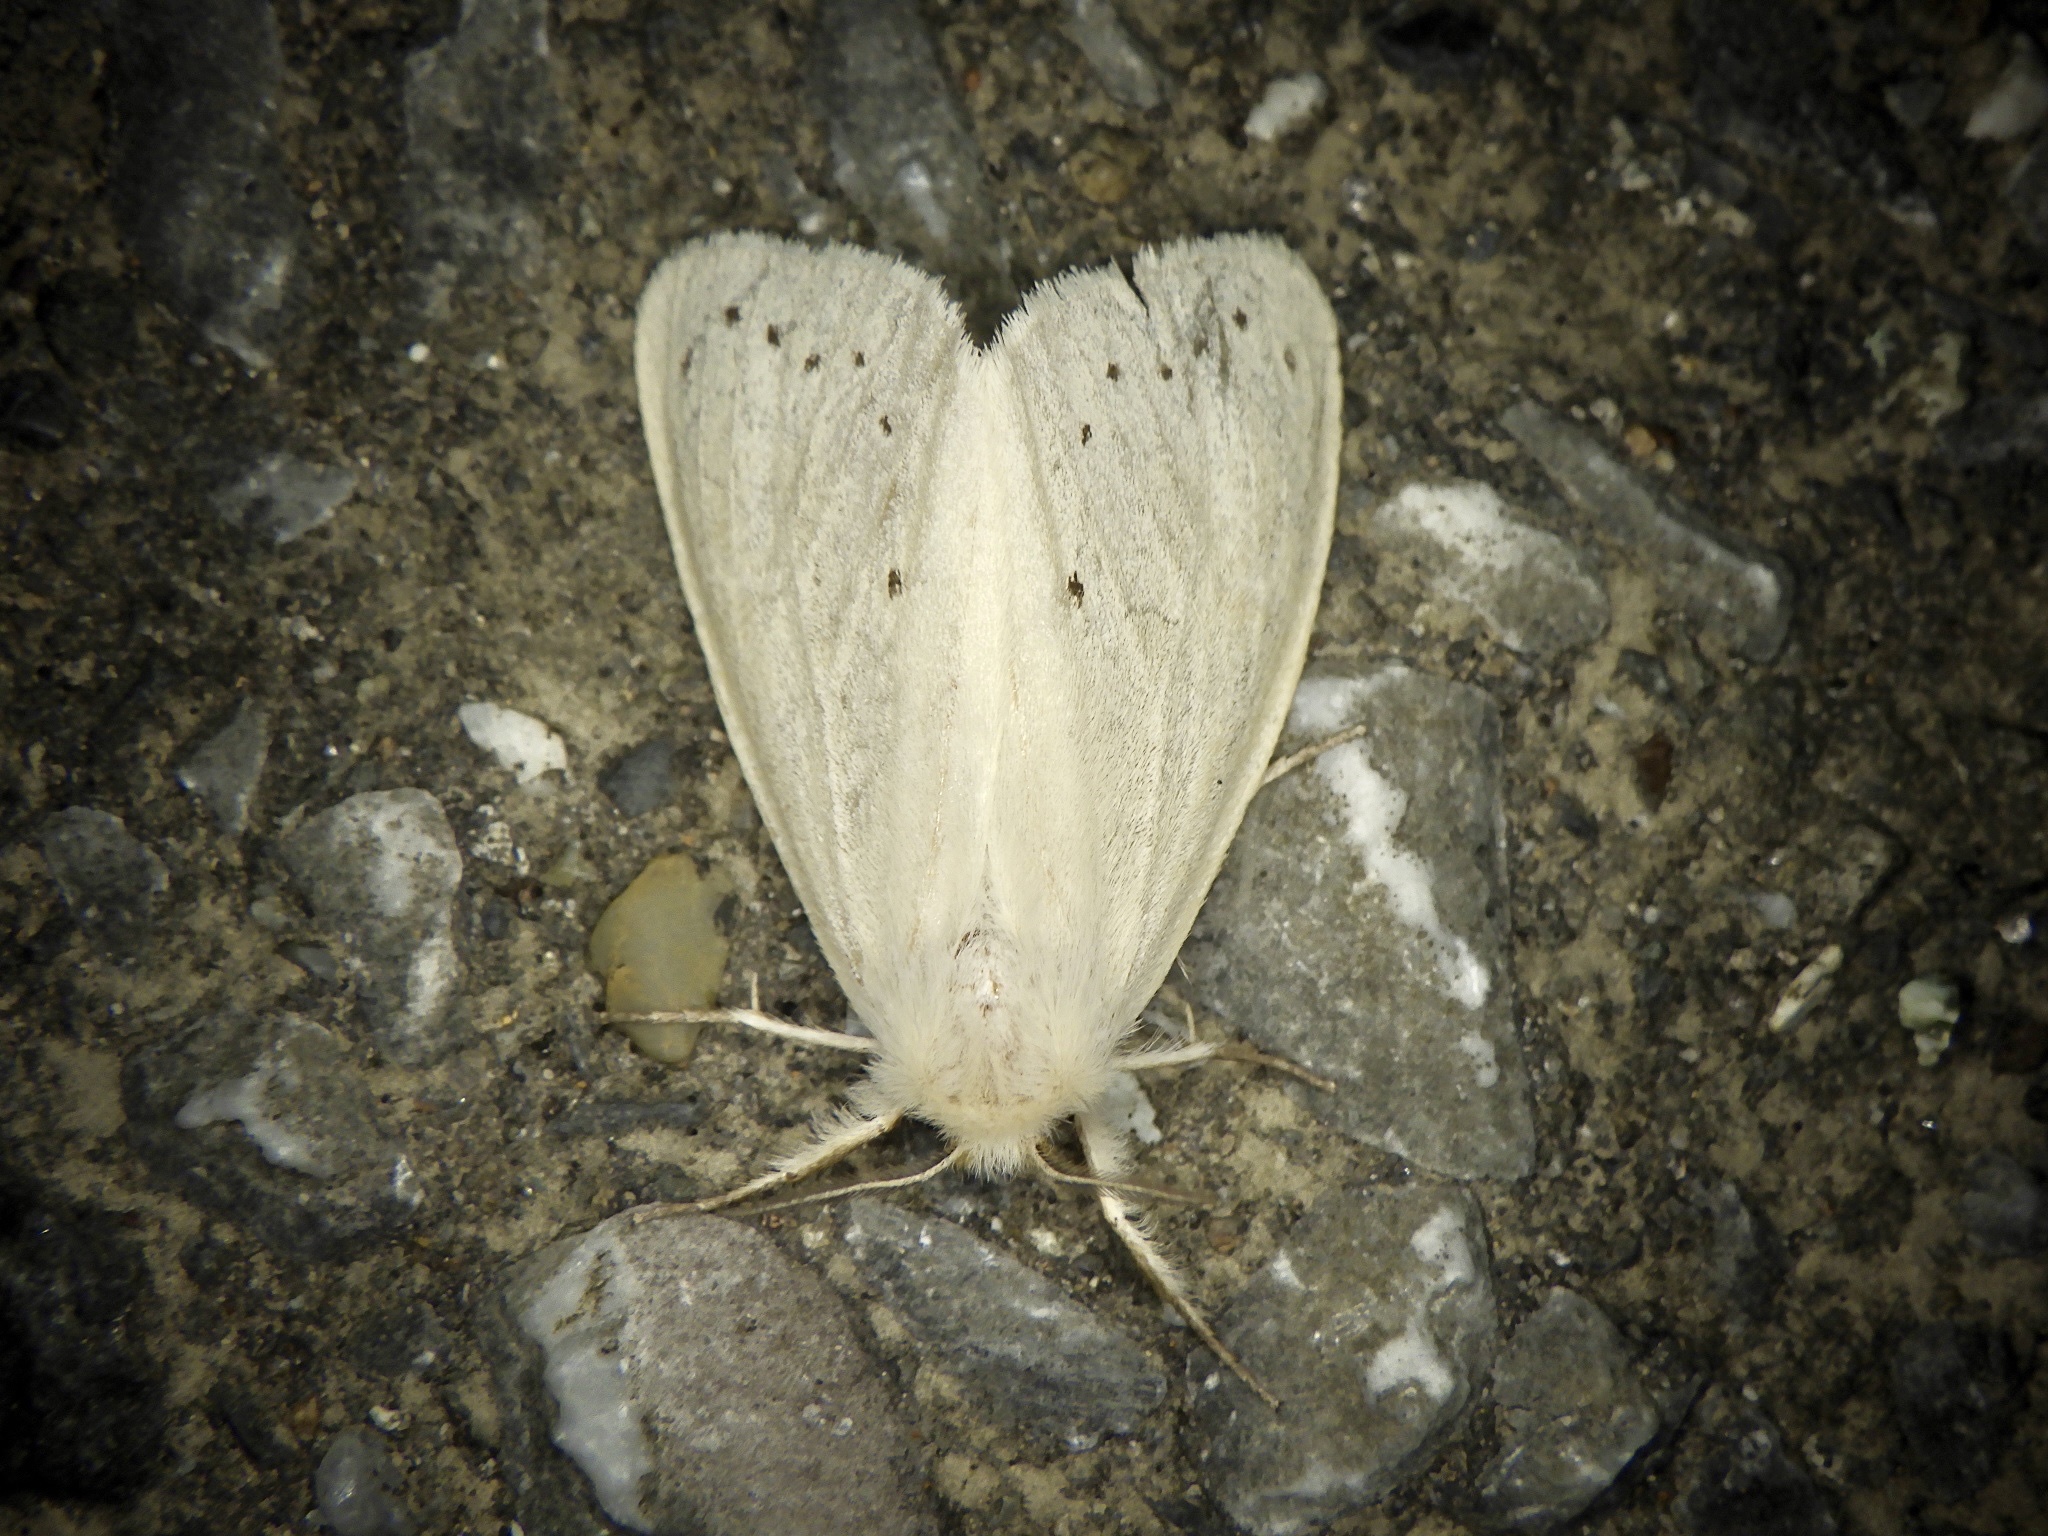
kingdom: Animalia
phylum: Arthropoda
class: Insecta
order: Lepidoptera
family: Erebidae
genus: Laelia
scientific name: Laelia gigantea
